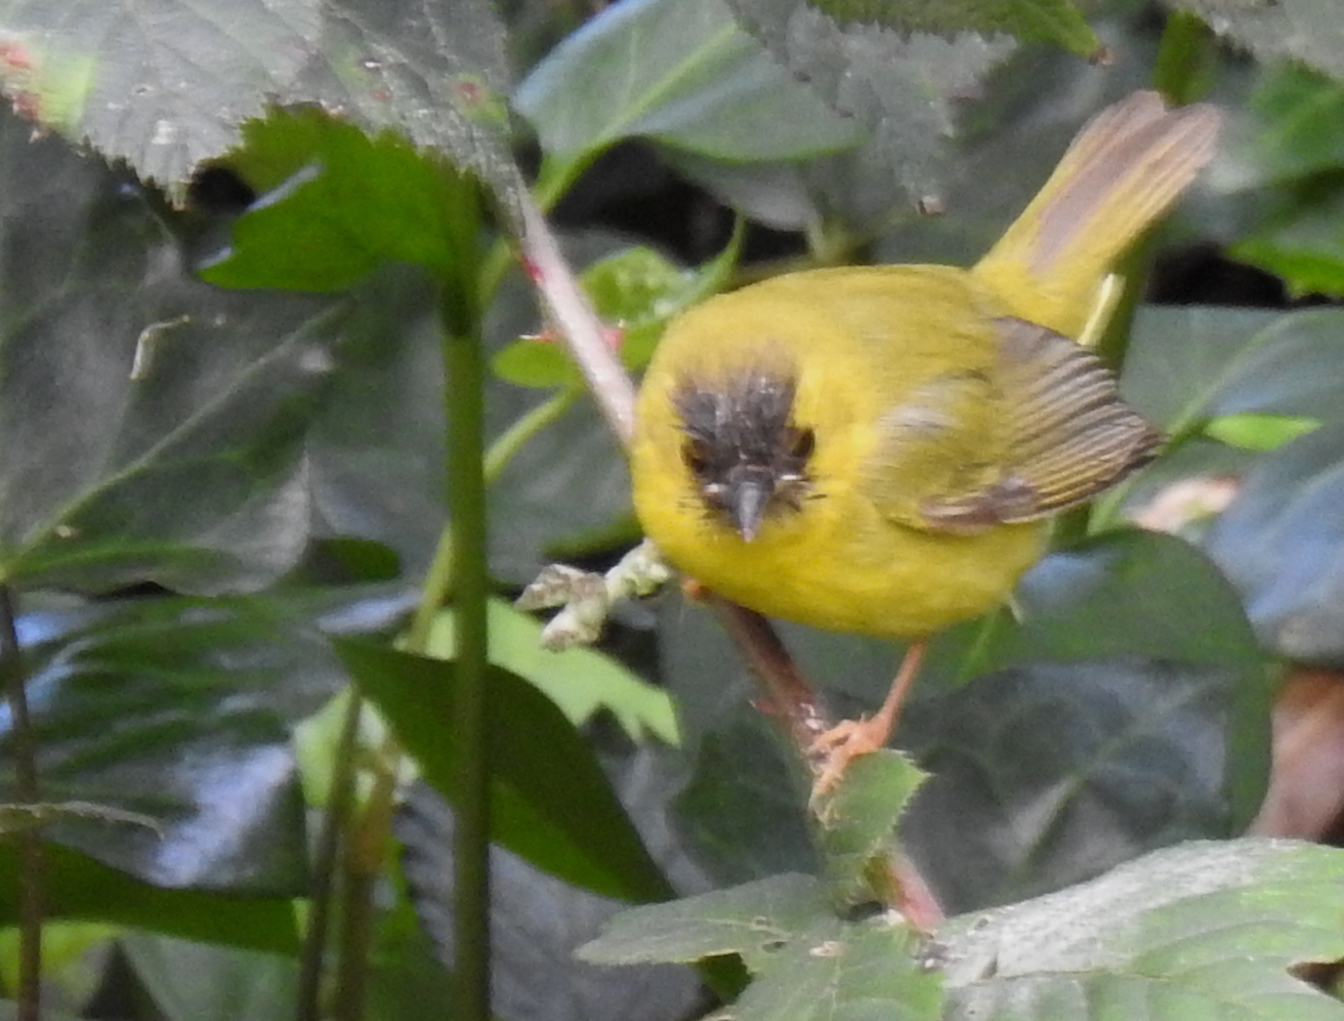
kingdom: Animalia
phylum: Chordata
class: Aves
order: Passeriformes
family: Parulidae
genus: Cardellina
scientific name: Cardellina pusilla
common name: Wilson's warbler
